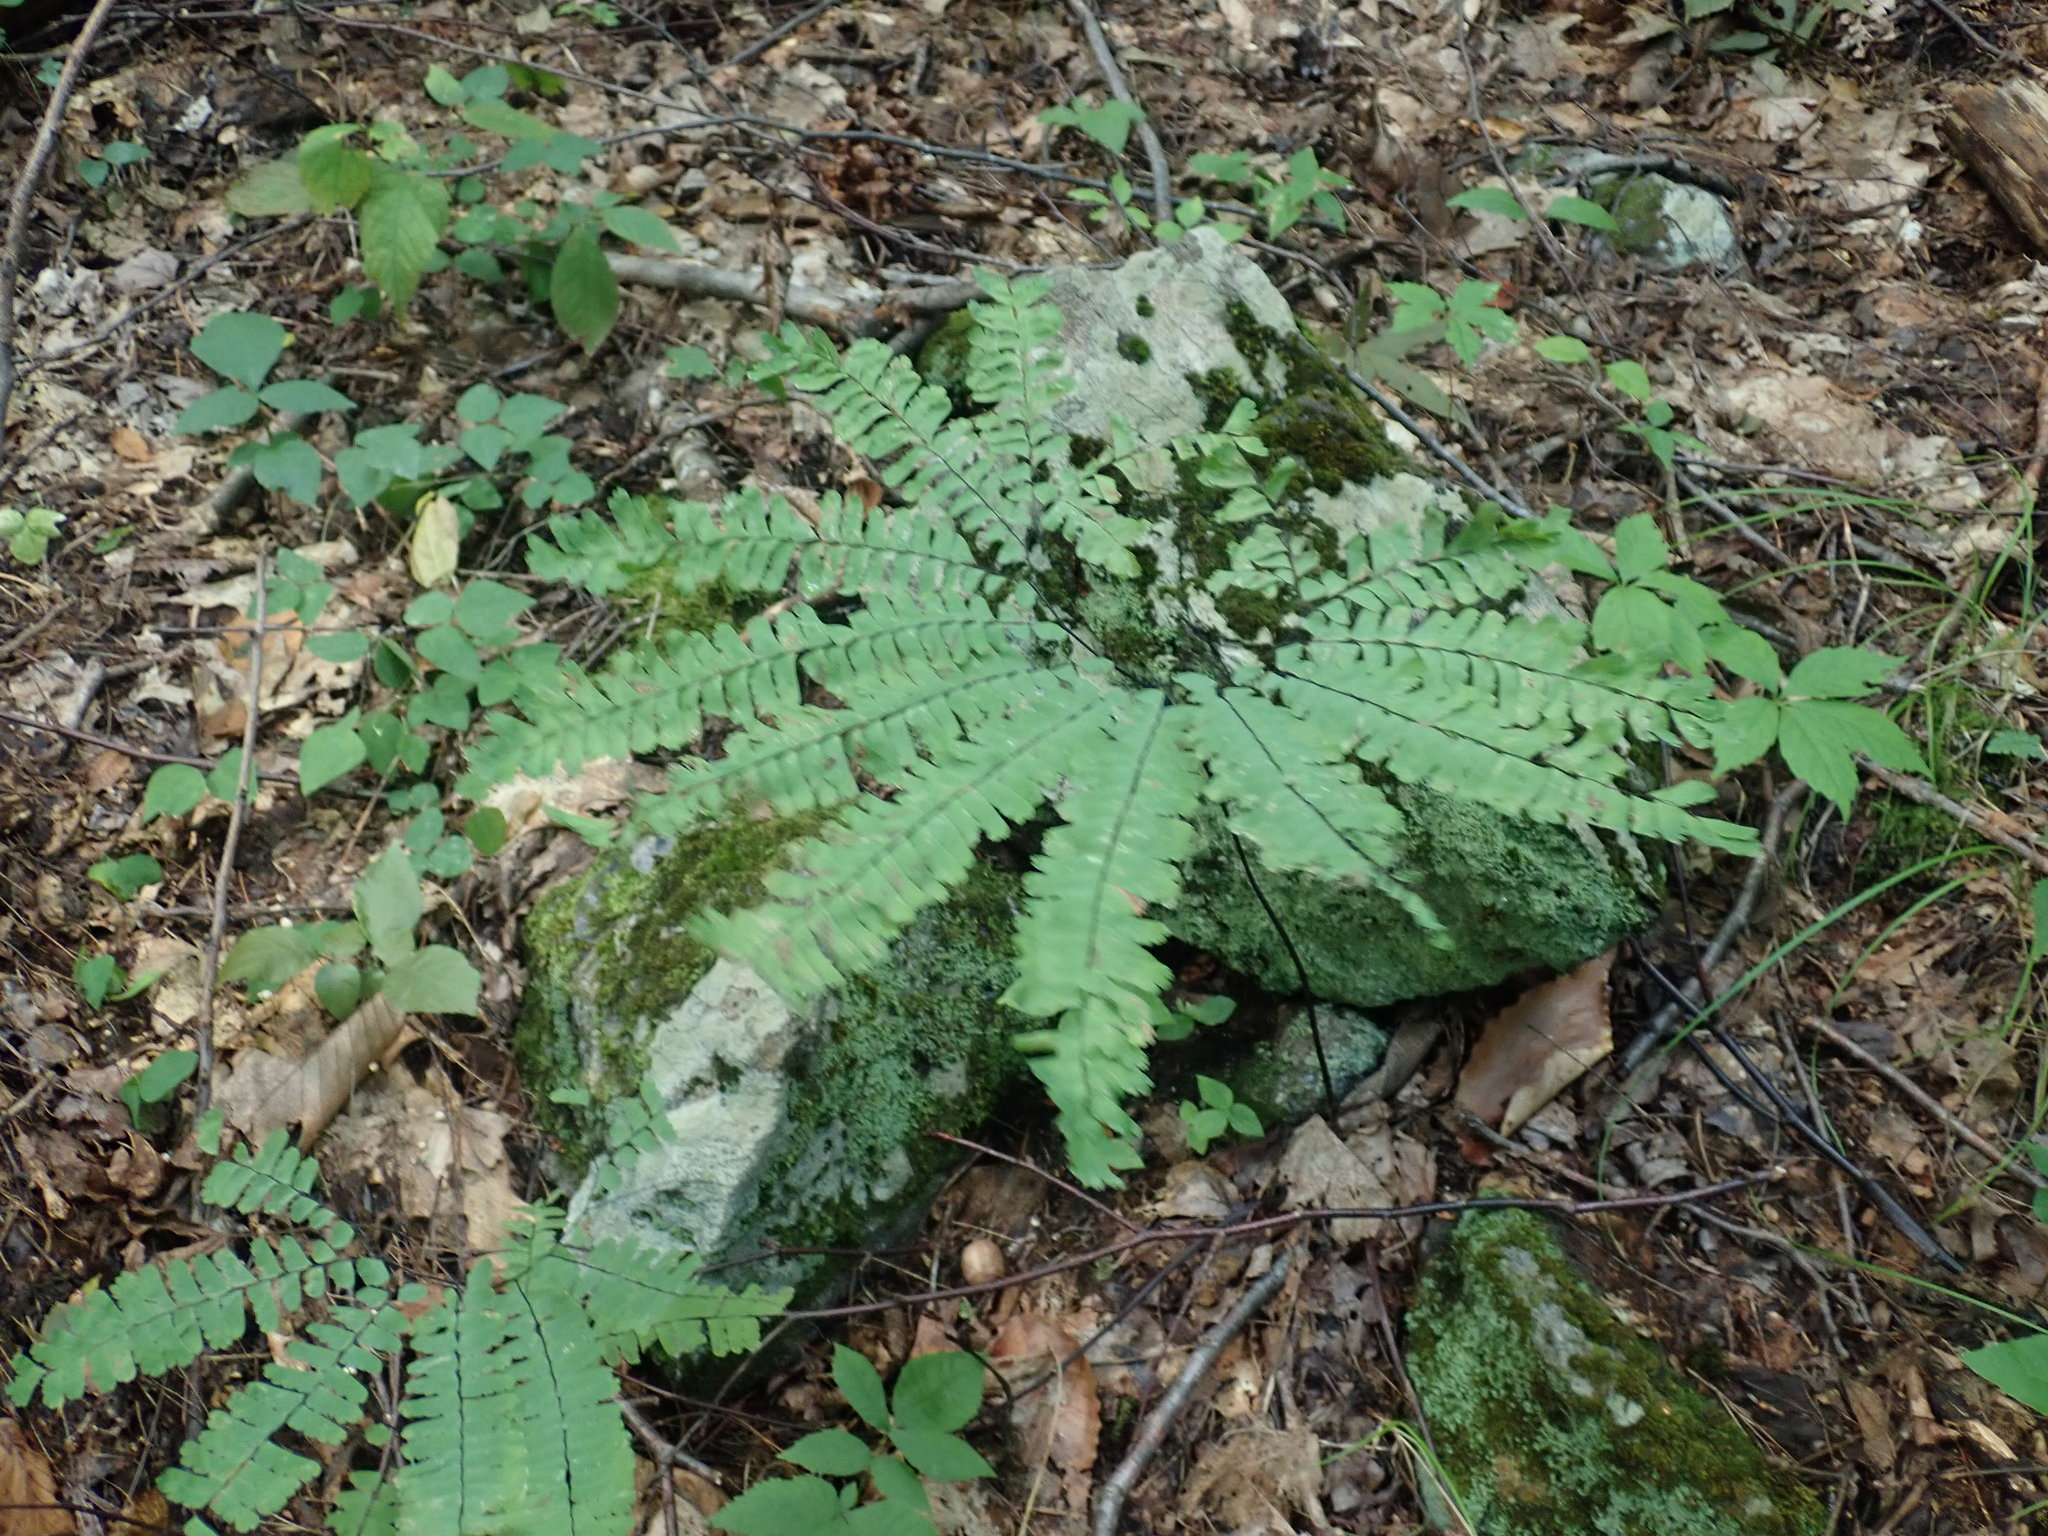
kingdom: Plantae
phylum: Tracheophyta
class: Polypodiopsida
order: Polypodiales
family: Pteridaceae
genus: Adiantum
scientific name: Adiantum pedatum
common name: Five-finger fern
